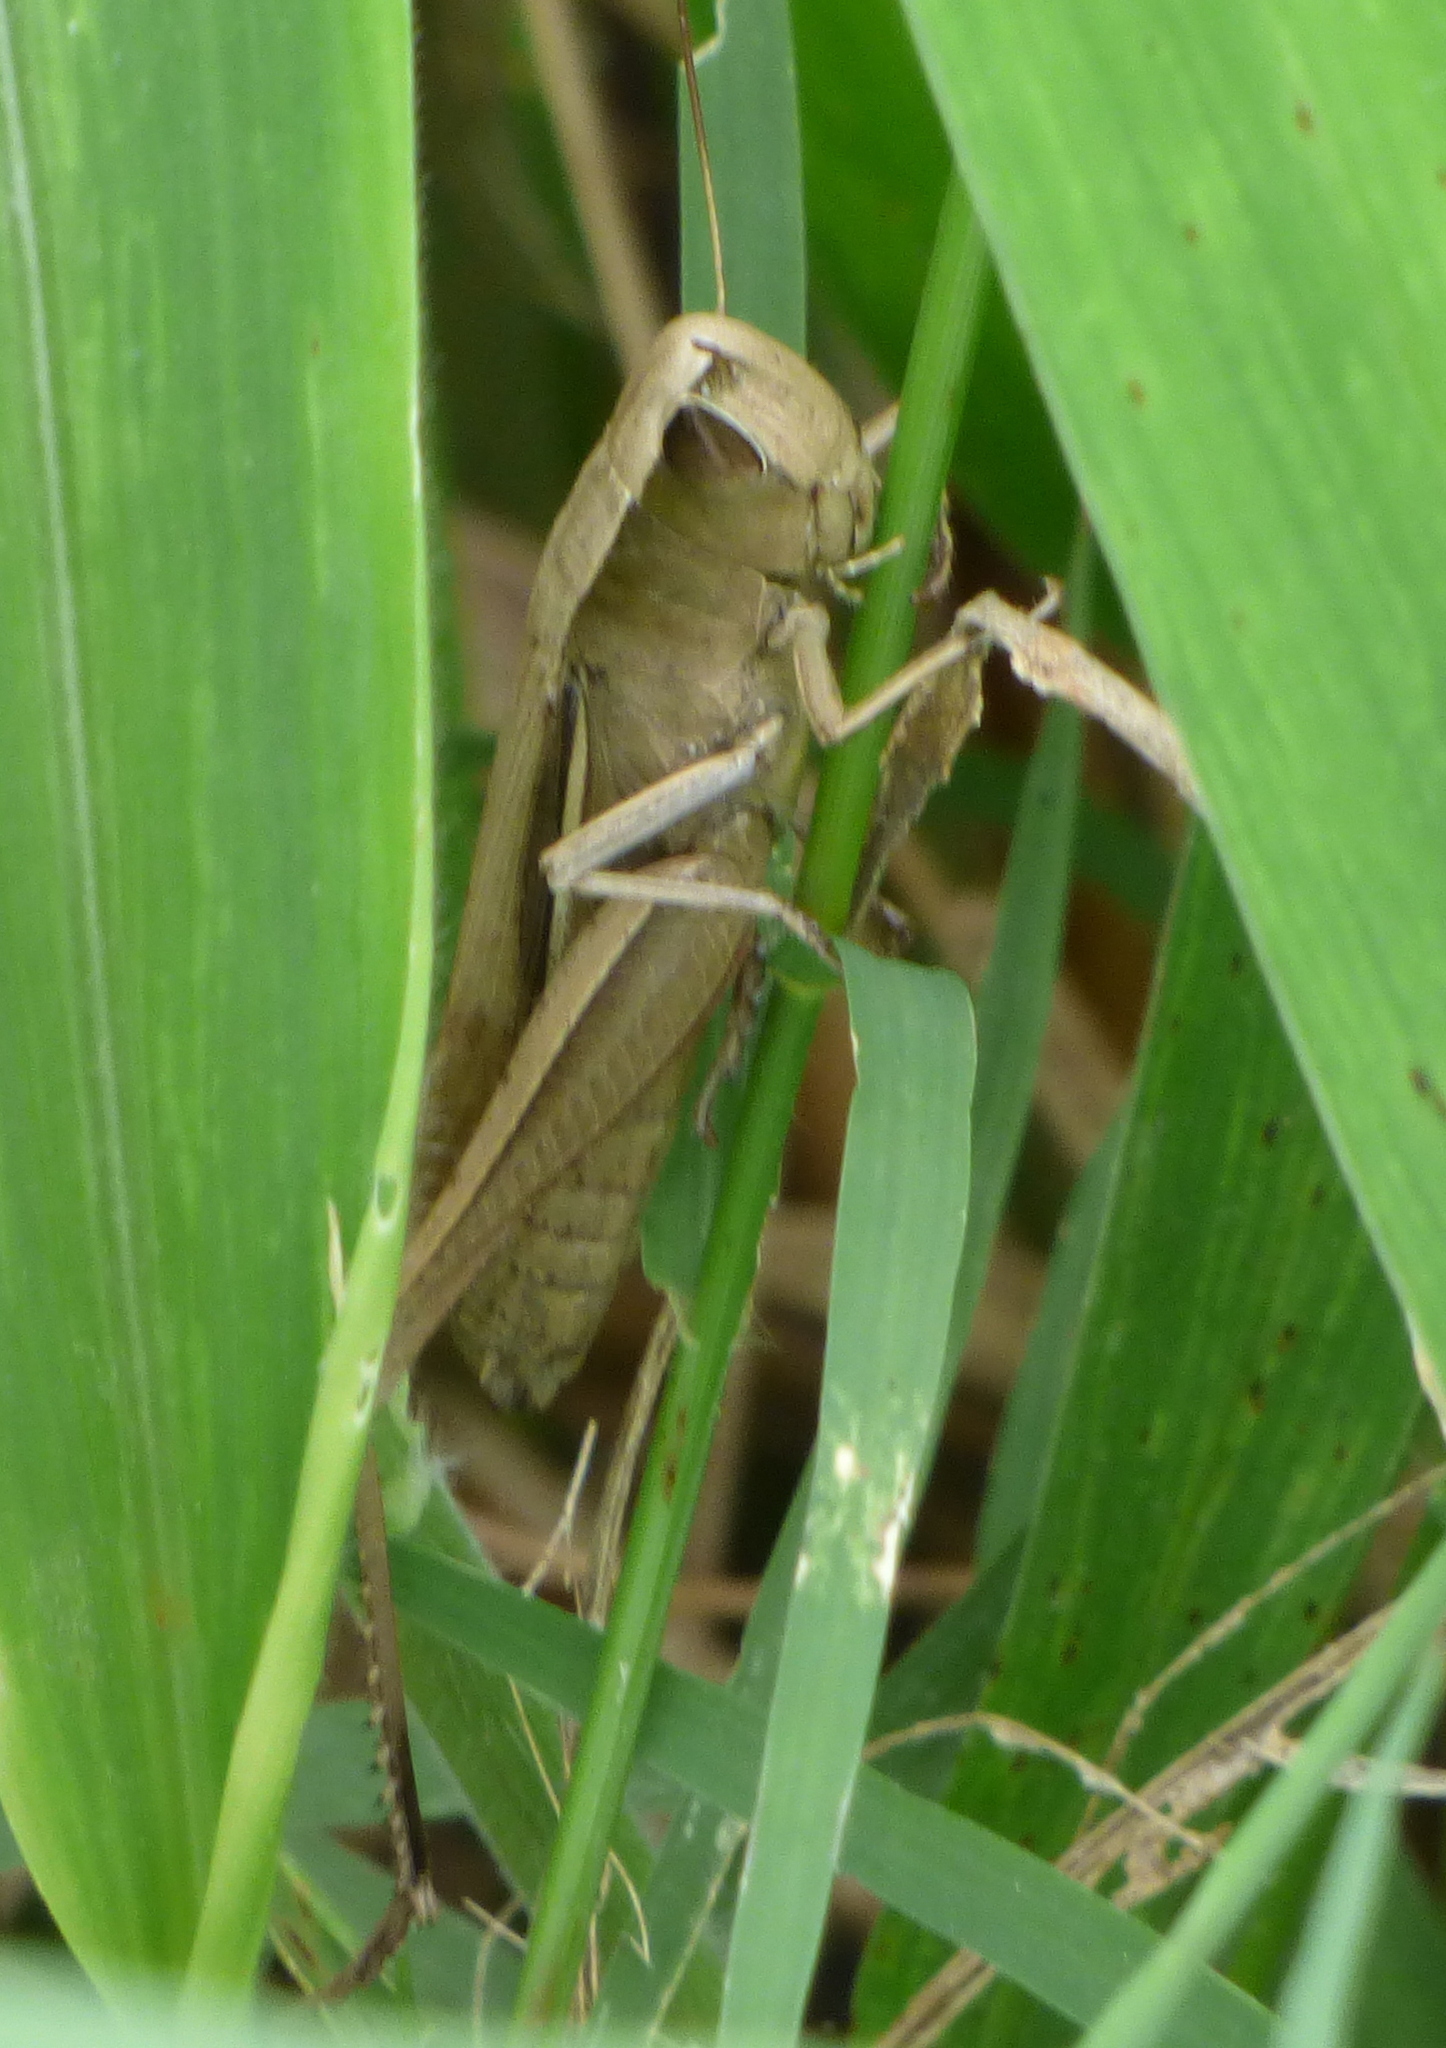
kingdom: Animalia
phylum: Arthropoda
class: Insecta
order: Orthoptera
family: Acrididae
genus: Amblytropidia
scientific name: Amblytropidia australis
